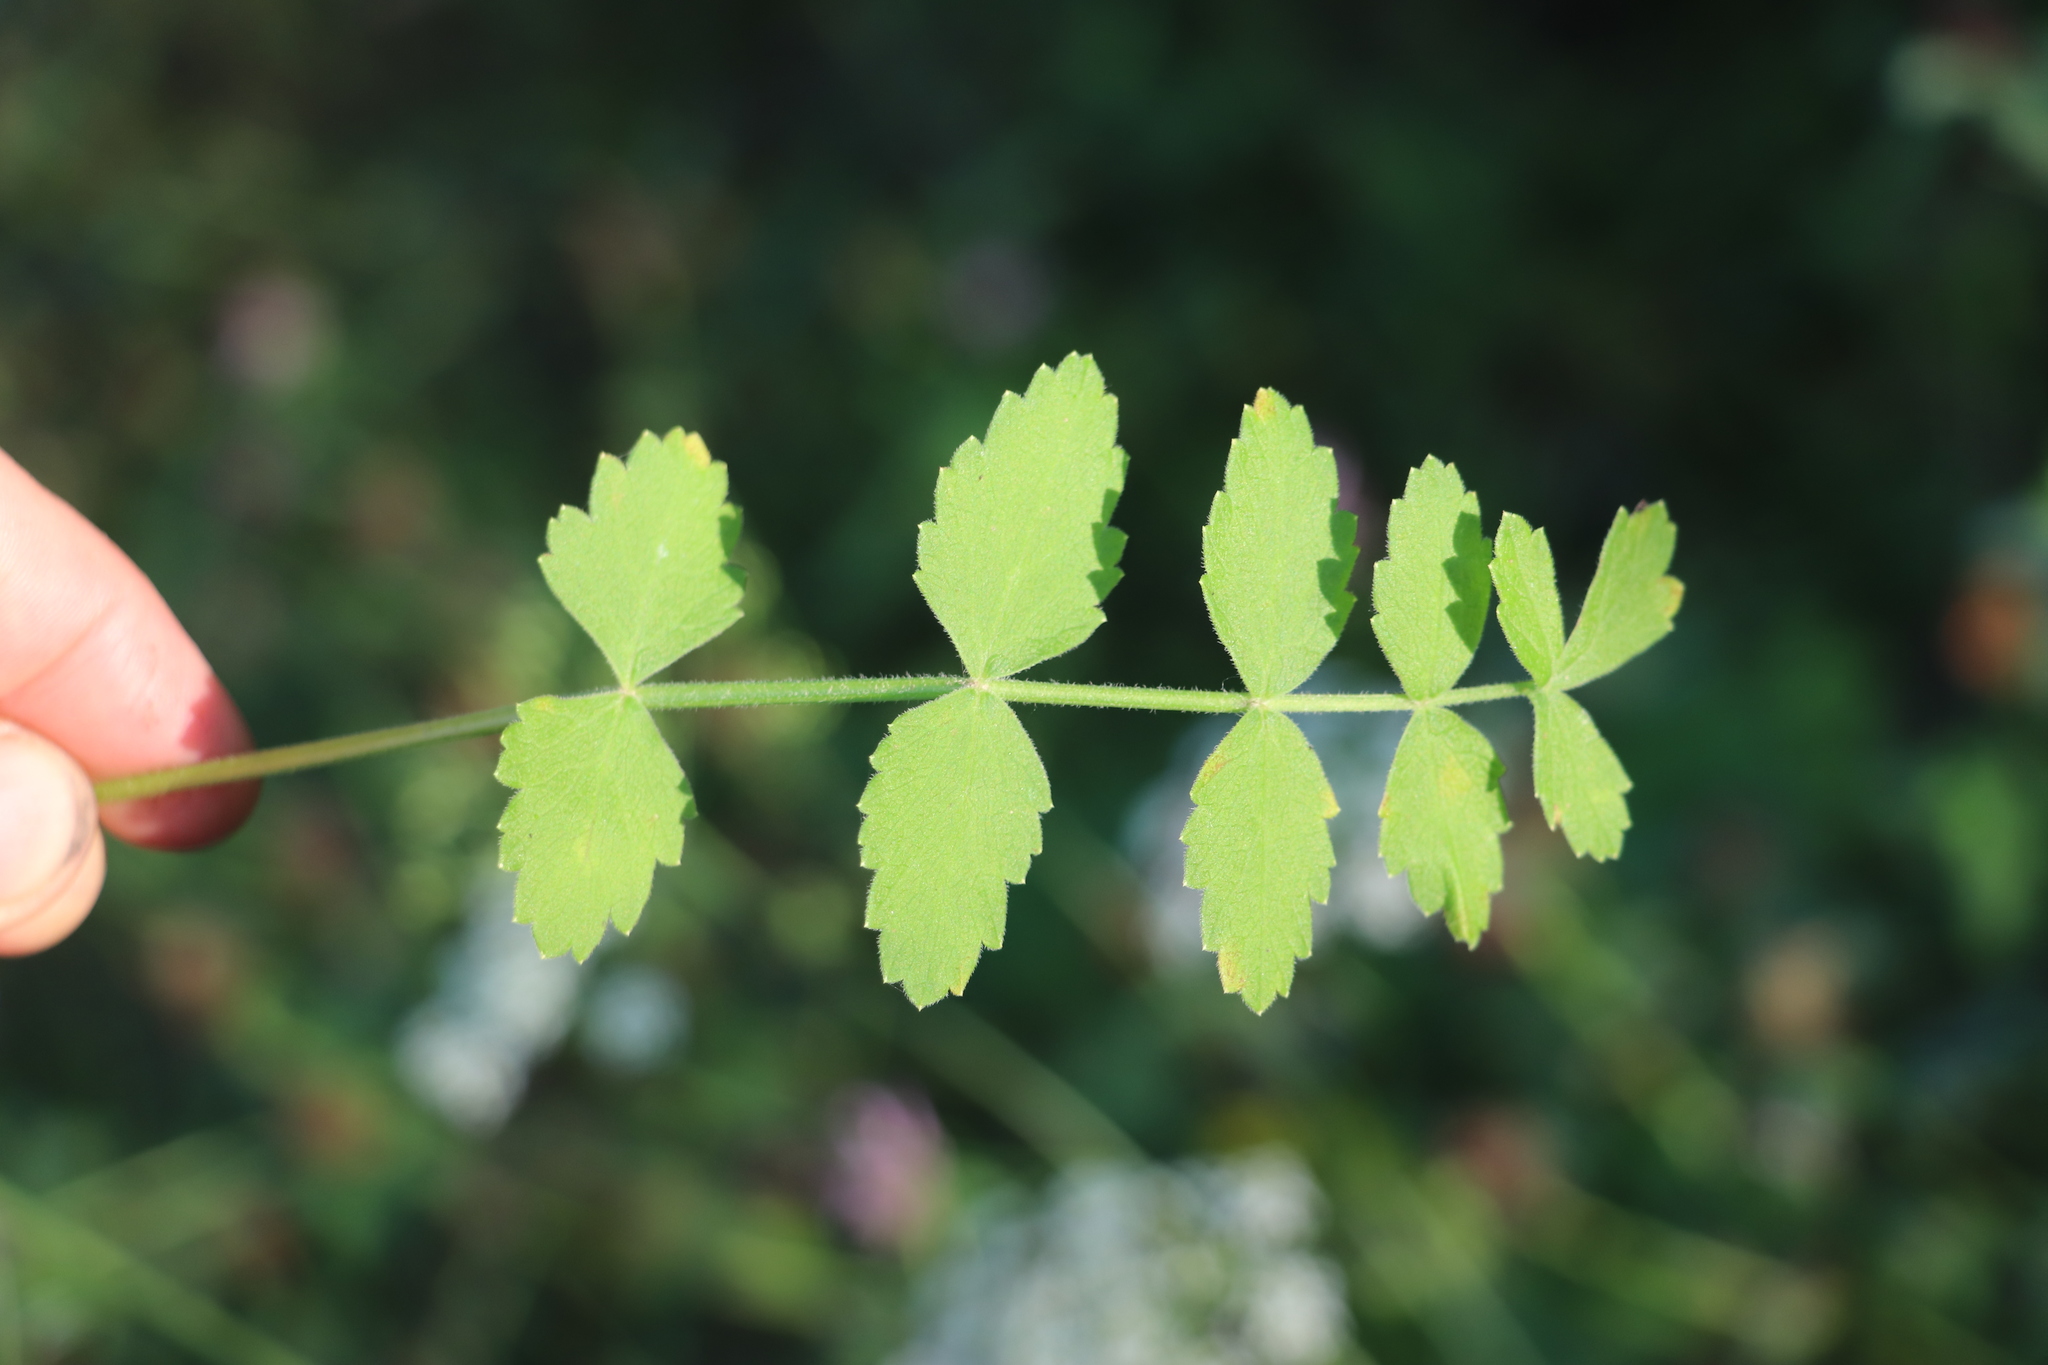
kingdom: Plantae
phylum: Tracheophyta
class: Magnoliopsida
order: Apiales
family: Apiaceae
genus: Pimpinella
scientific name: Pimpinella saxifraga
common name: Burnet-saxifrage
